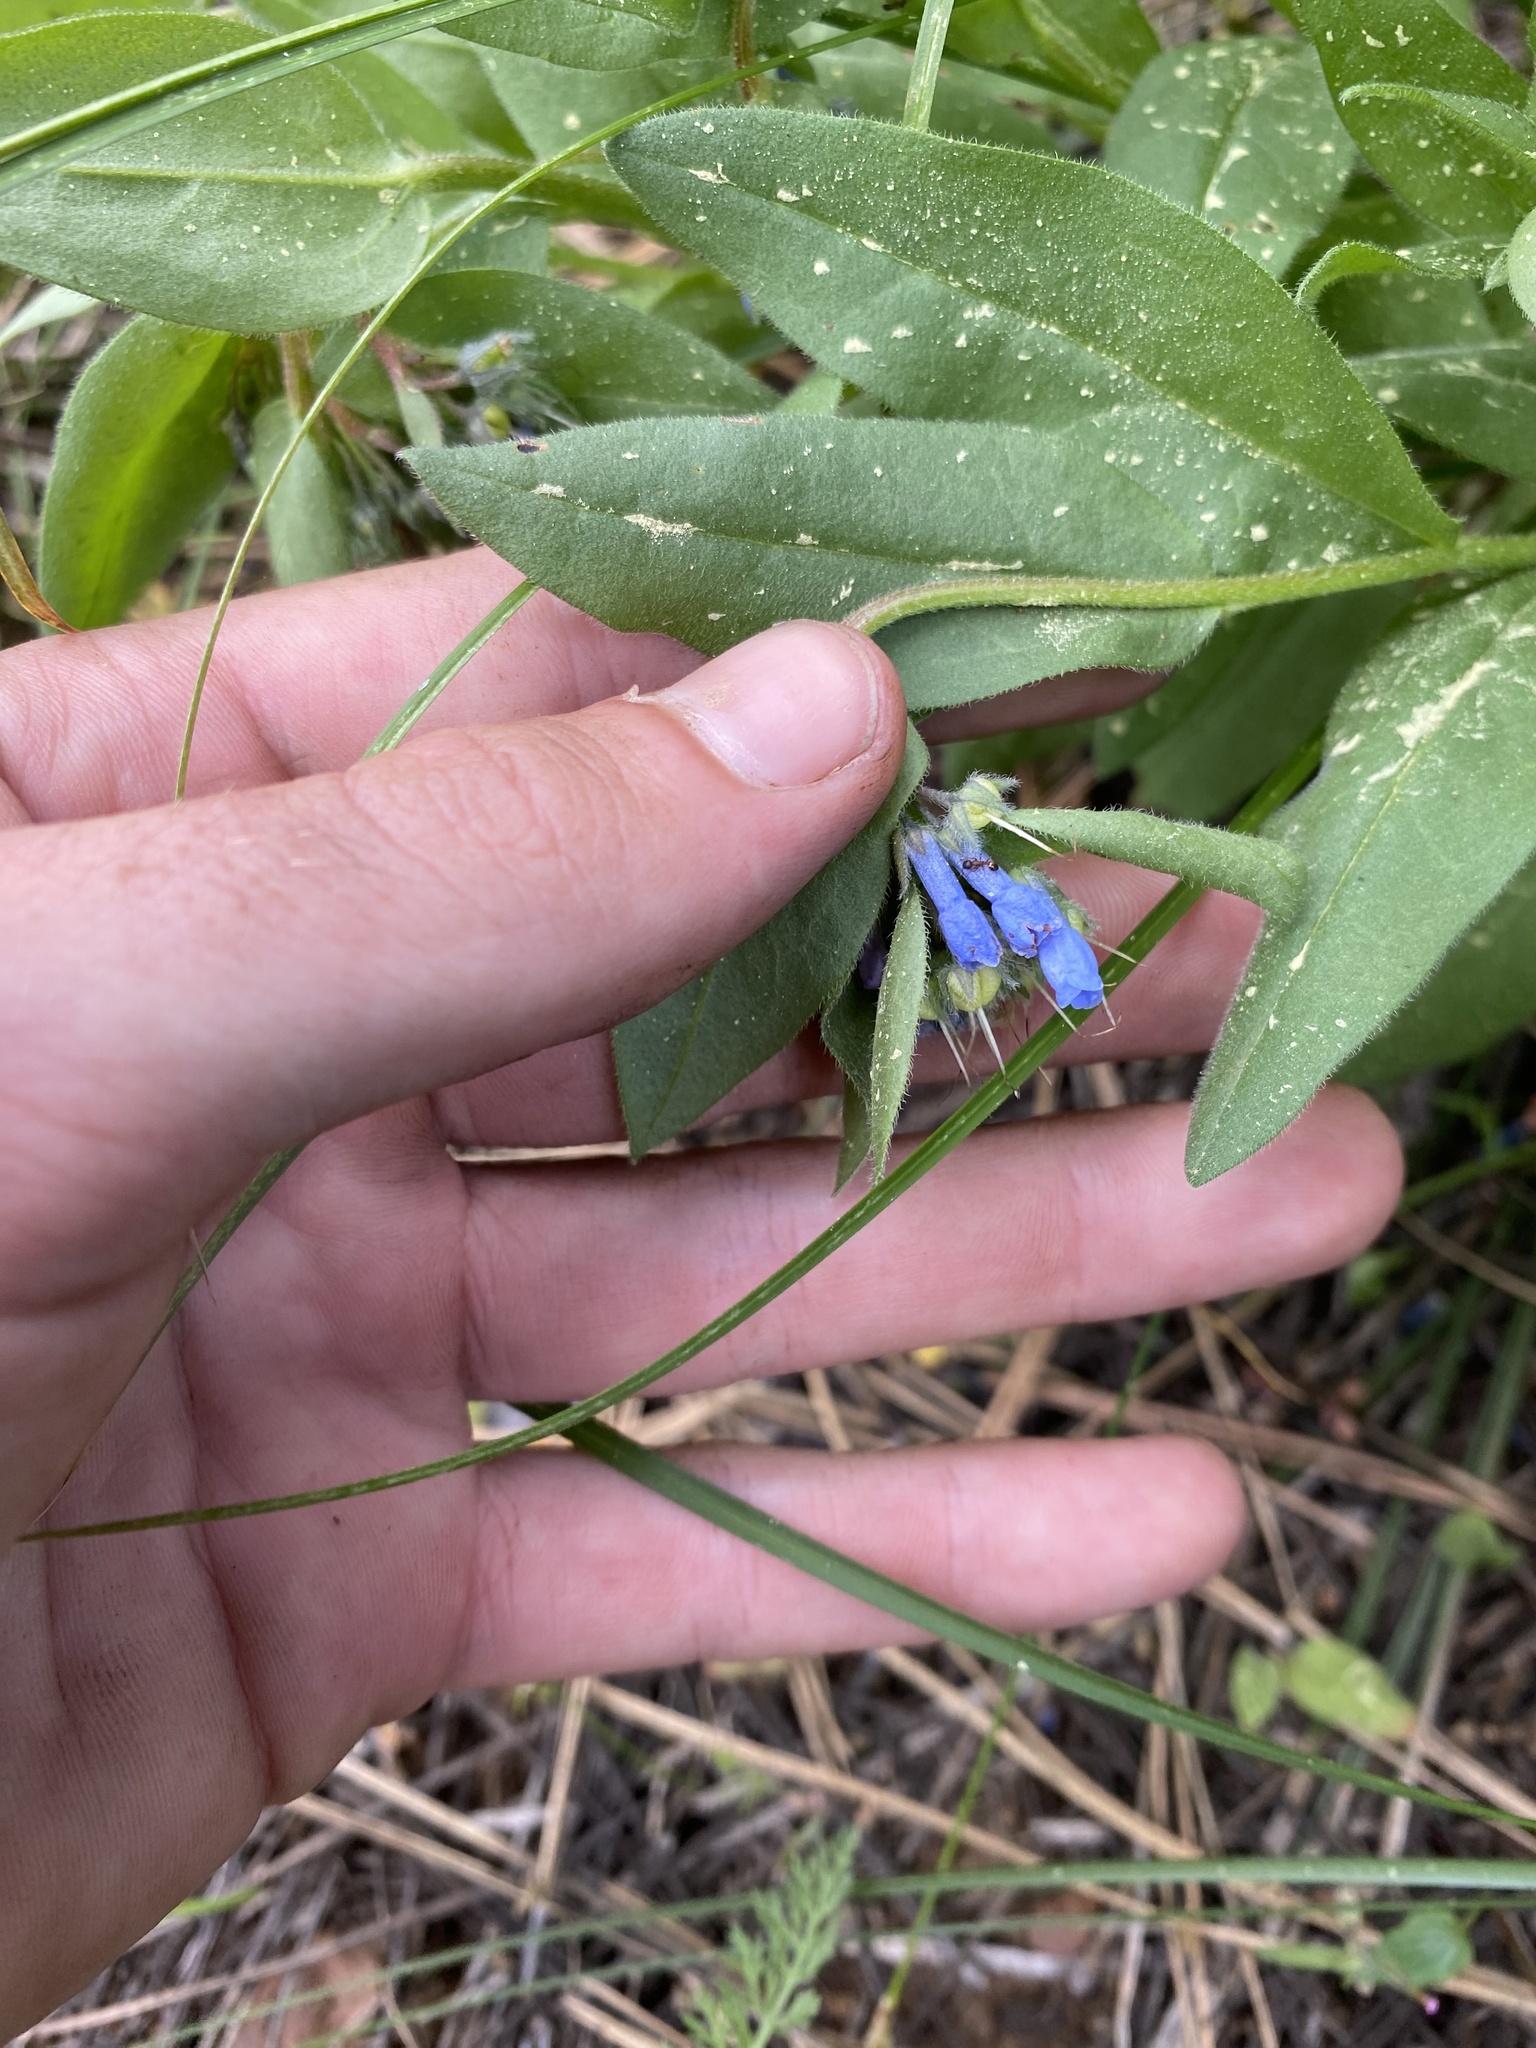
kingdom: Plantae
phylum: Tracheophyta
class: Magnoliopsida
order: Boraginales
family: Boraginaceae
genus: Mertensia
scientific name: Mertensia cusickii
